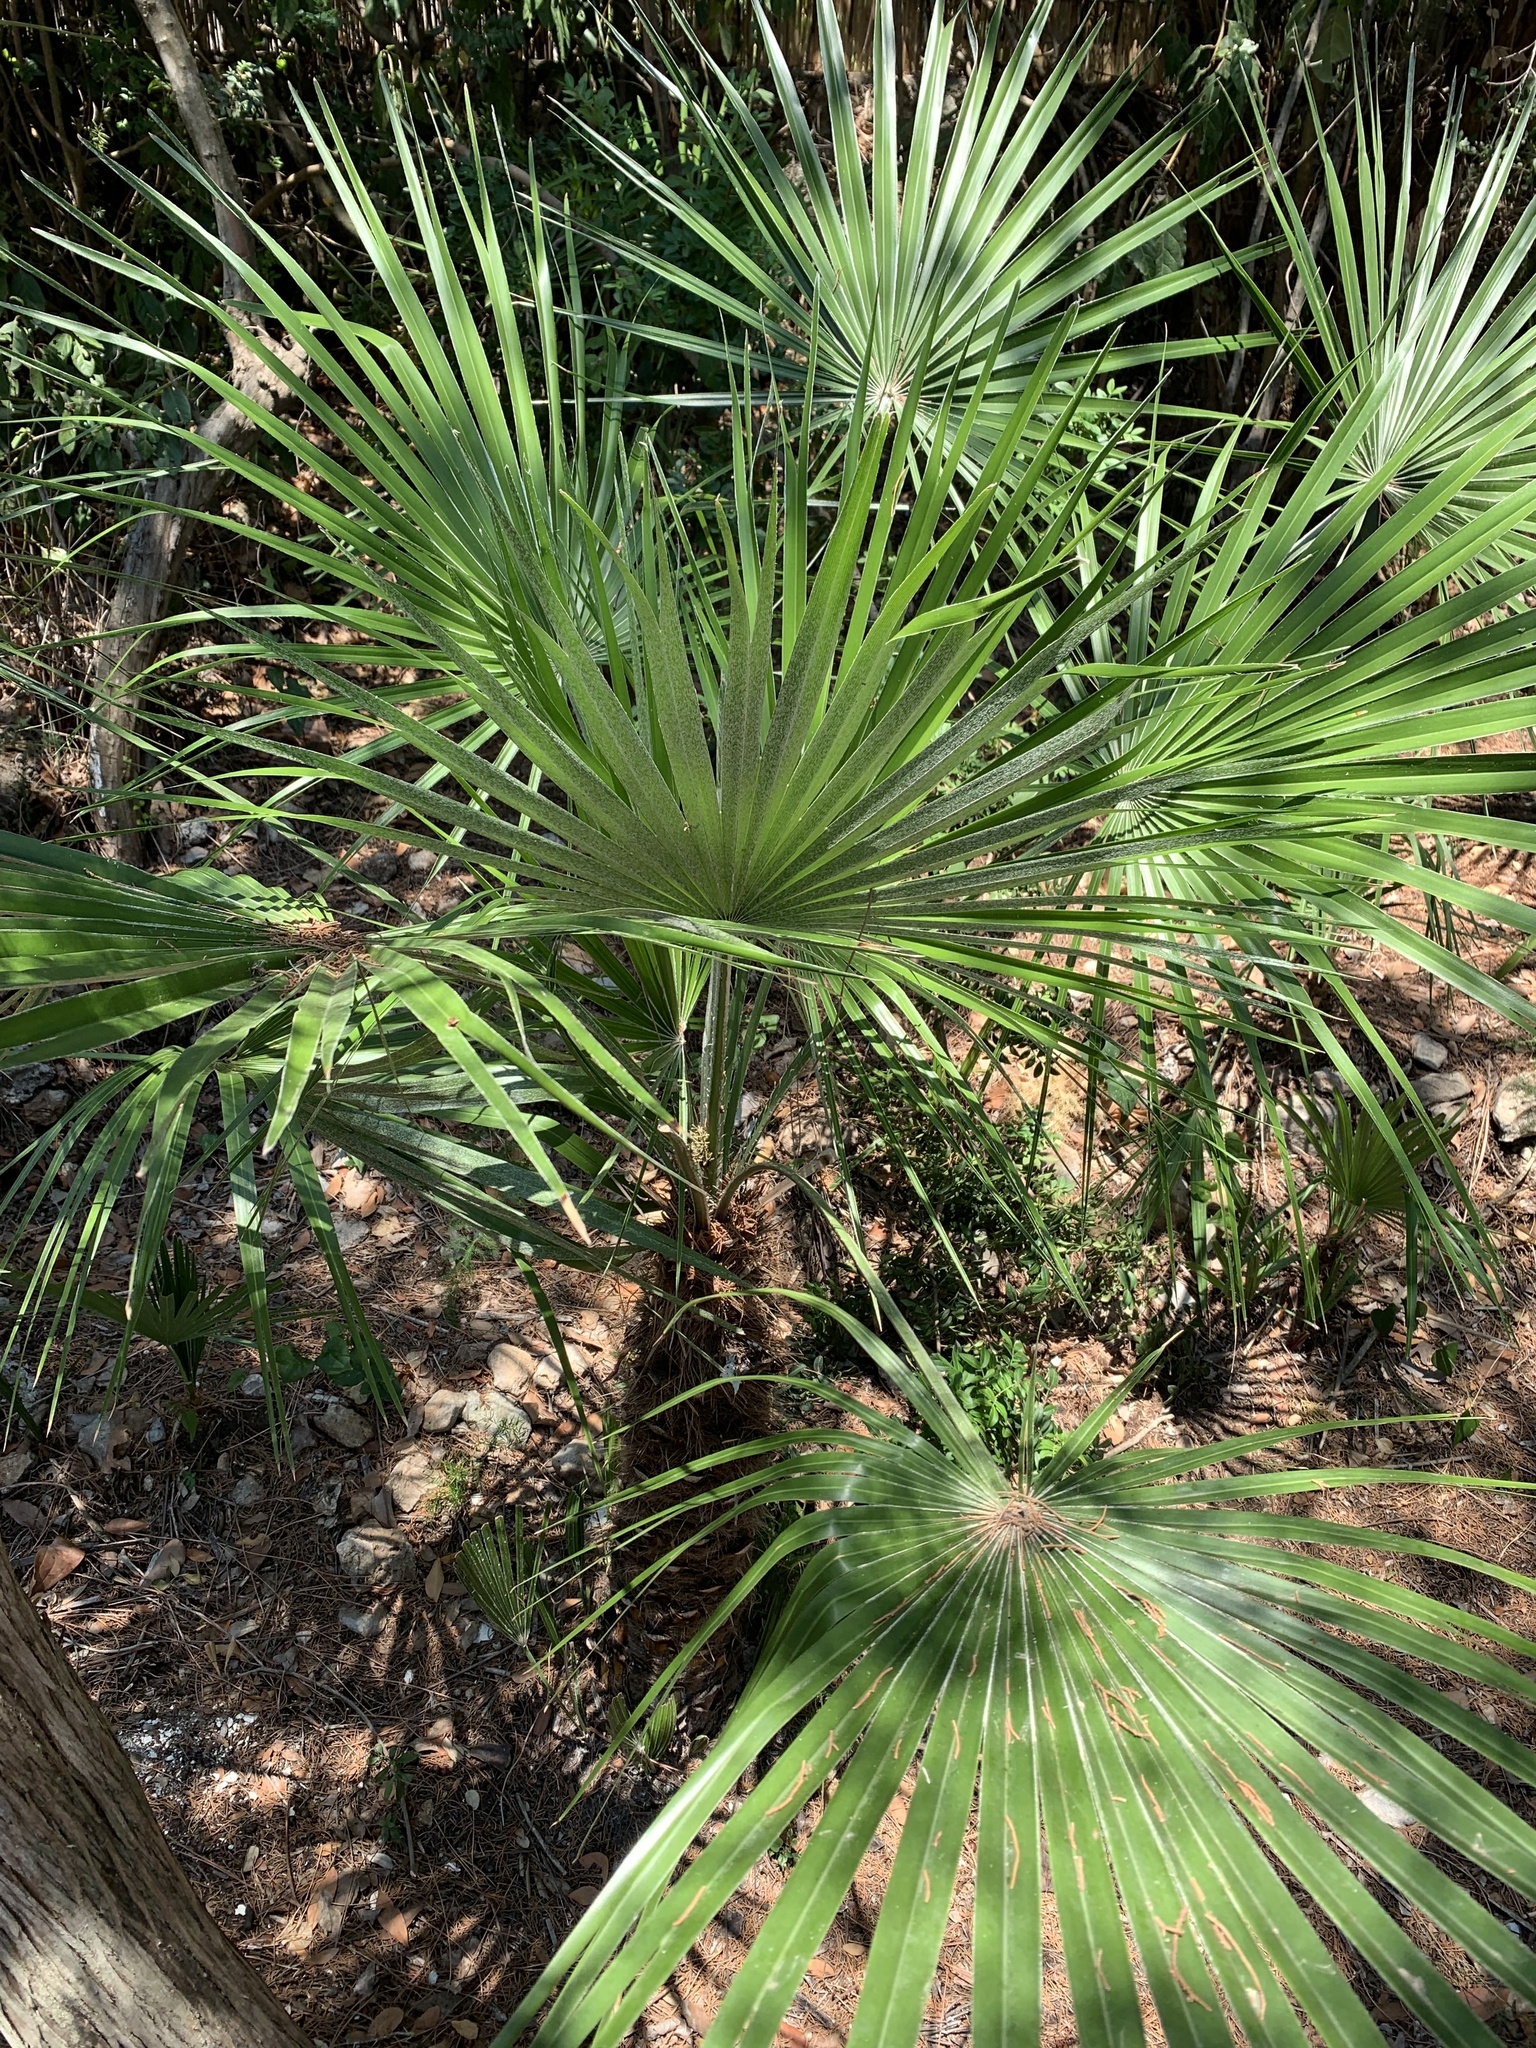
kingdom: Plantae
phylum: Tracheophyta
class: Liliopsida
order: Arecales
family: Arecaceae
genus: Chamaerops
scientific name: Chamaerops humilis
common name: Dwarf fan palm
